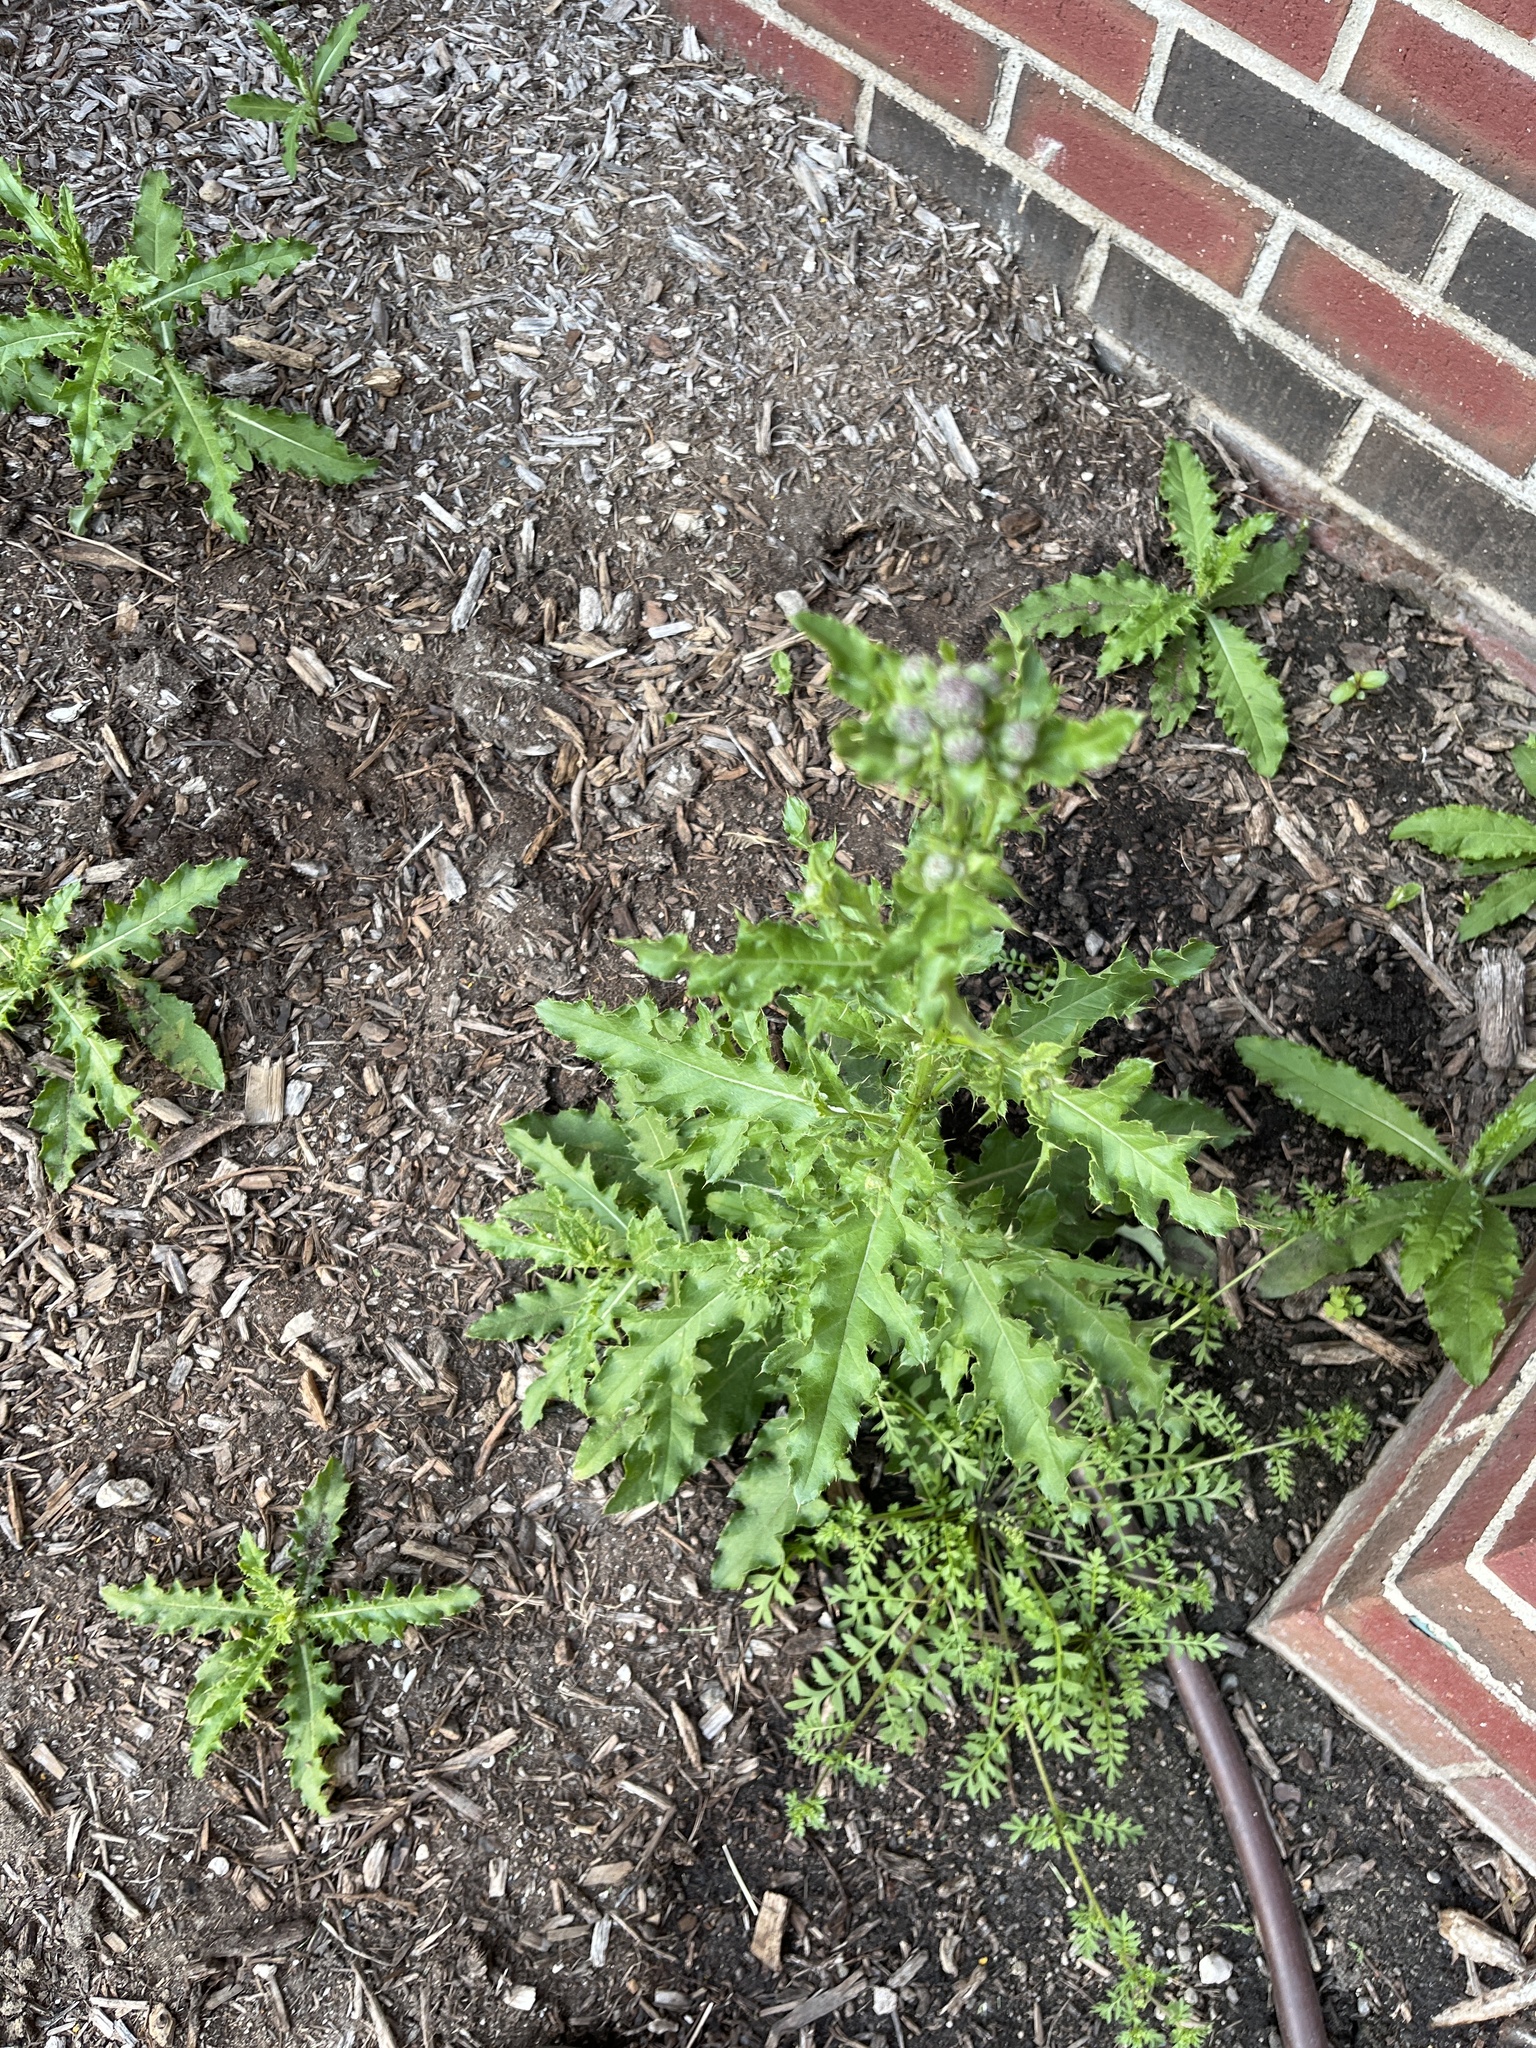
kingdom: Plantae
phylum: Tracheophyta
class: Magnoliopsida
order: Asterales
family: Asteraceae
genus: Cirsium
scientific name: Cirsium arvense
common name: Creeping thistle
